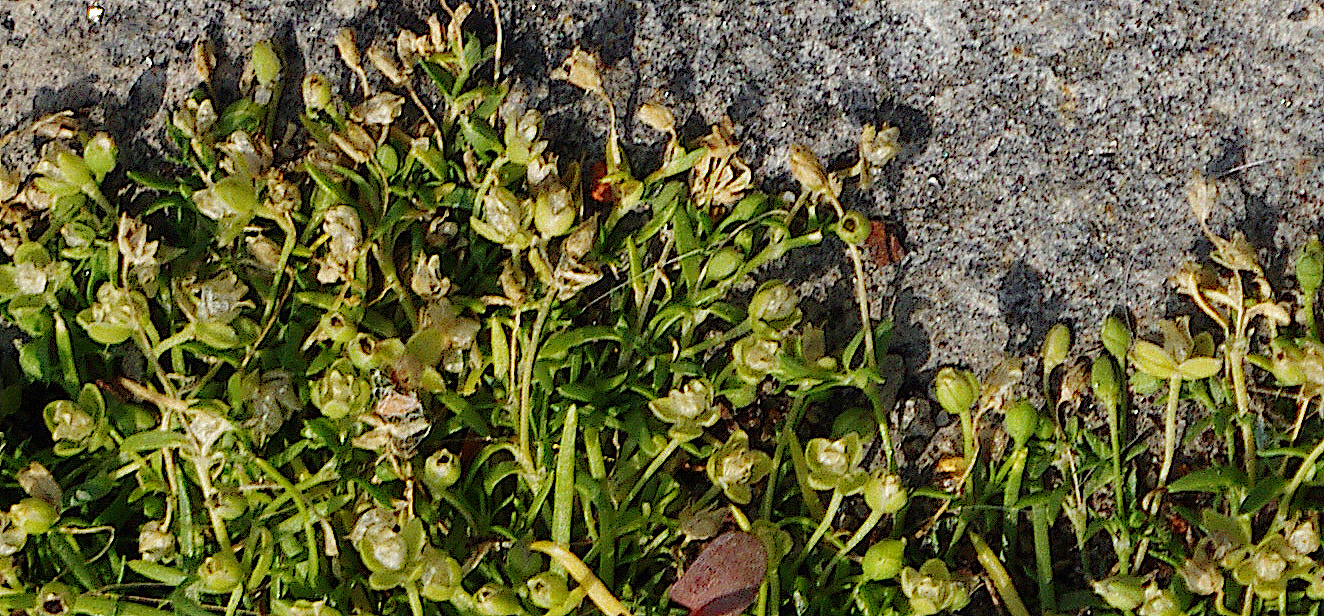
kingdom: Plantae
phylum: Tracheophyta
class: Magnoliopsida
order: Caryophyllales
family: Caryophyllaceae
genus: Sagina
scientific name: Sagina procumbens
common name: Procumbent pearlwort
